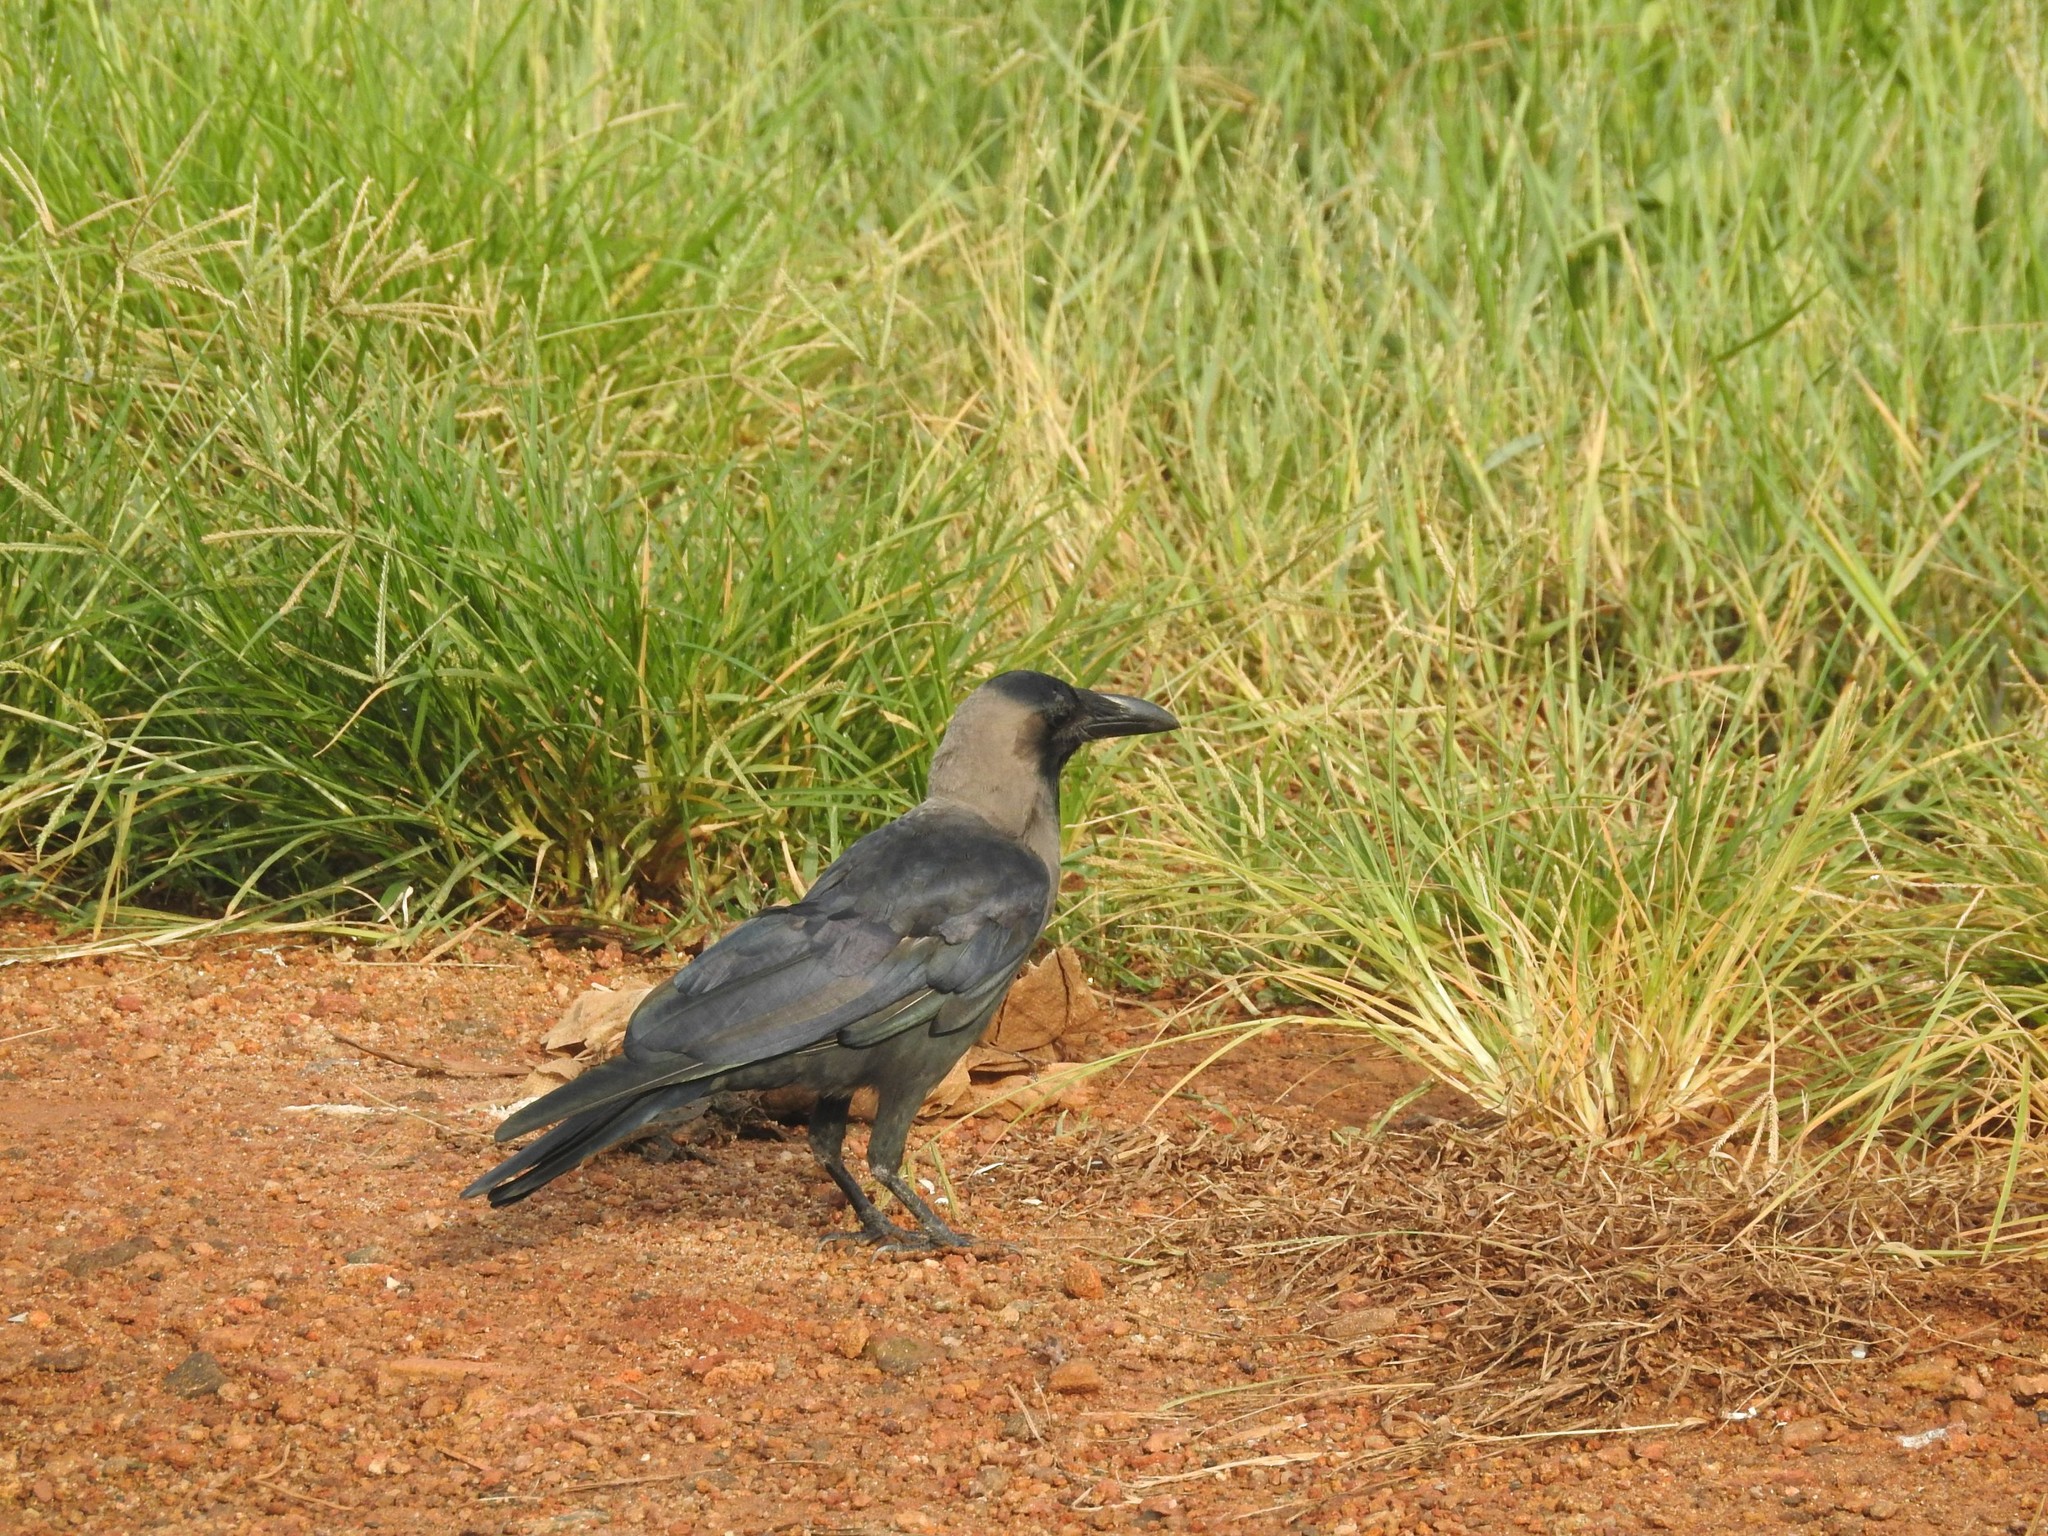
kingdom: Animalia
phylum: Chordata
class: Aves
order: Passeriformes
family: Corvidae
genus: Corvus
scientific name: Corvus splendens
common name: House crow
